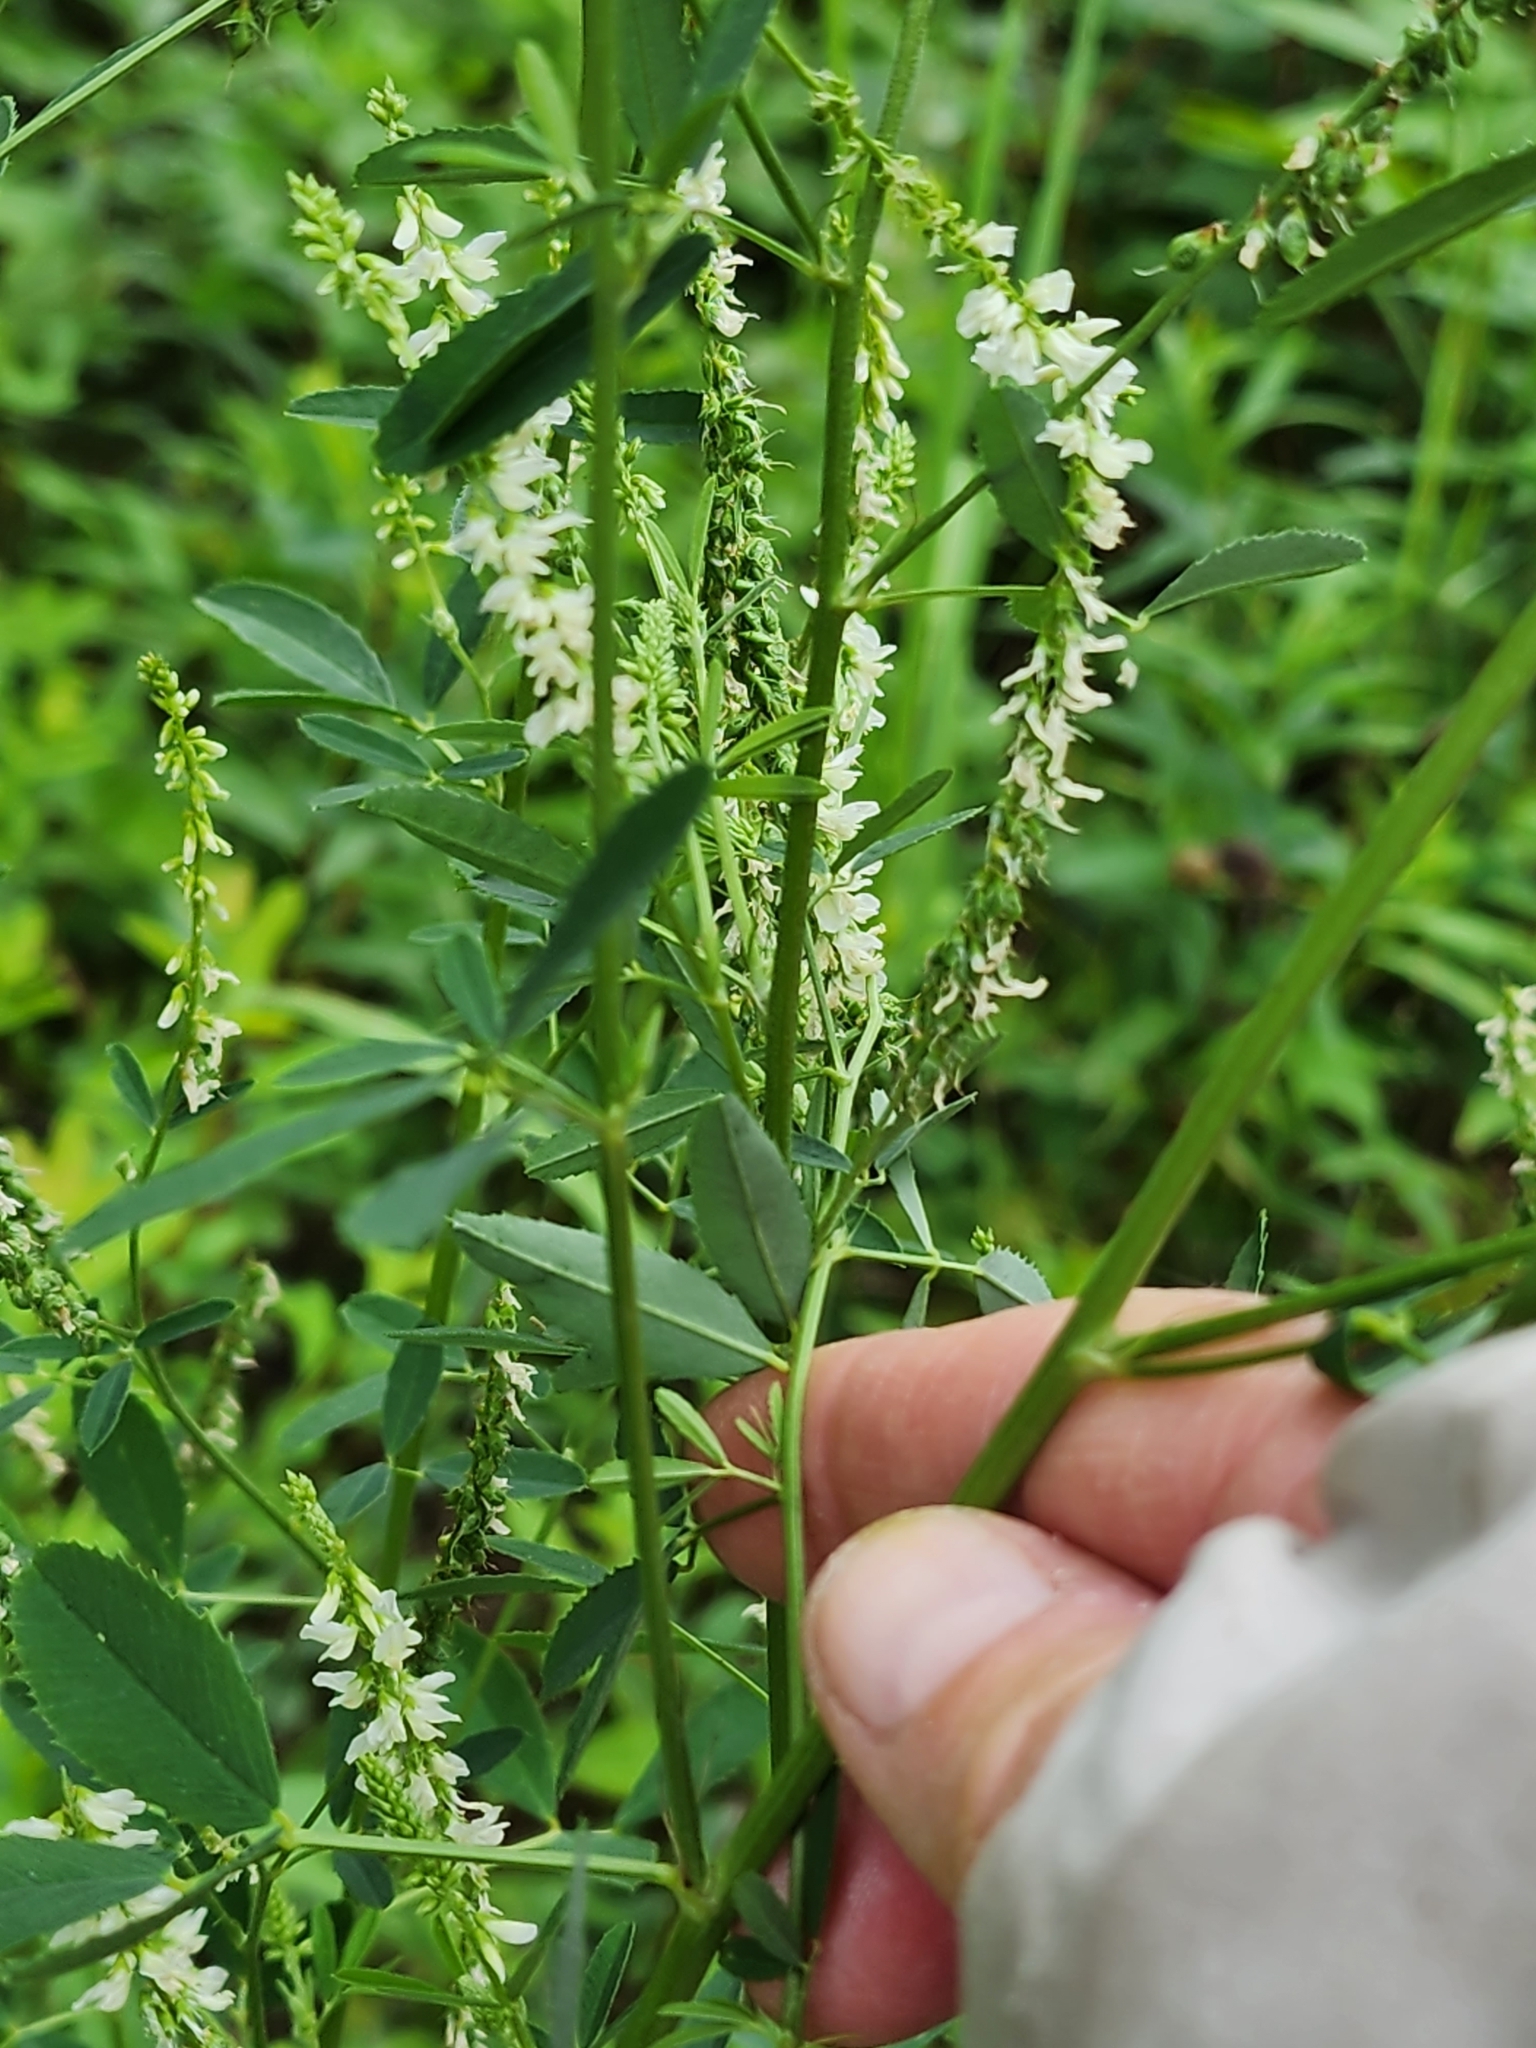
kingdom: Plantae
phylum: Tracheophyta
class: Magnoliopsida
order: Fabales
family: Fabaceae
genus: Melilotus
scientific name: Melilotus albus
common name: White melilot
